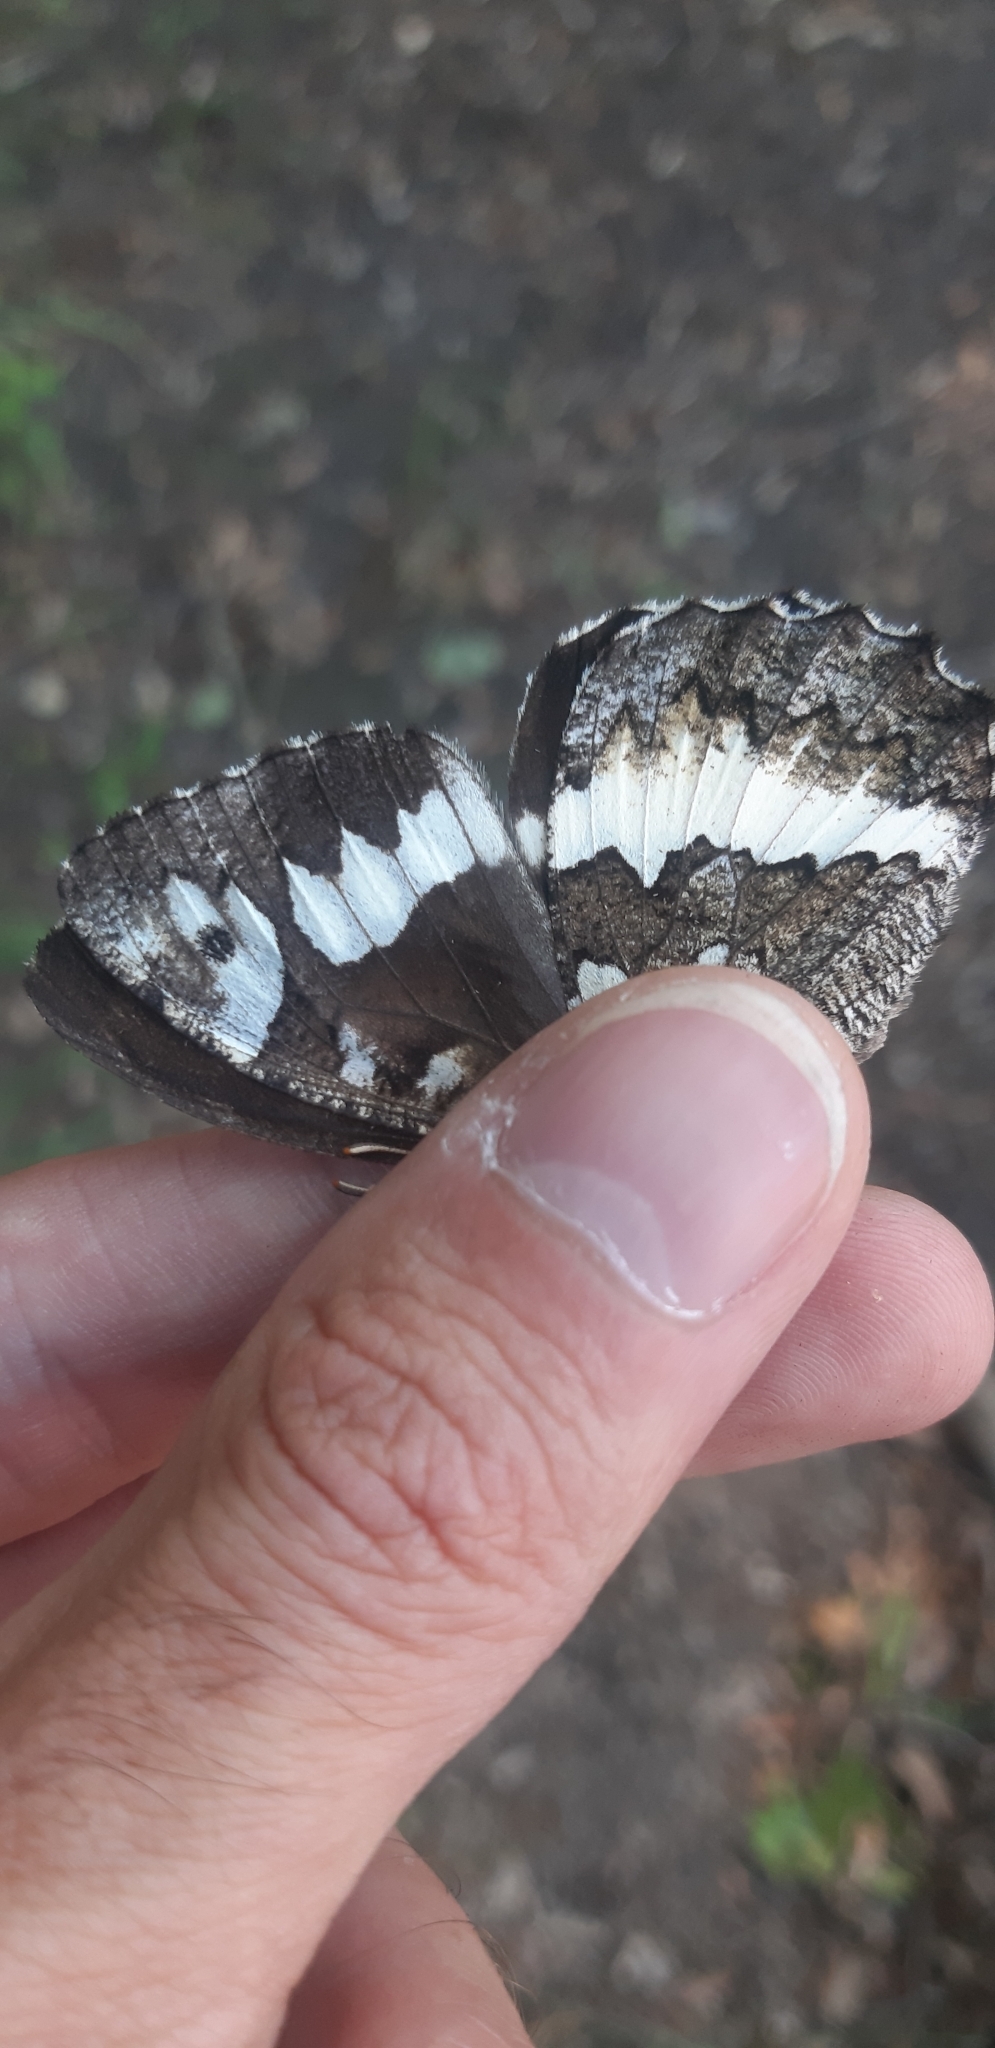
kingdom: Animalia
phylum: Arthropoda
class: Insecta
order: Lepidoptera
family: Lycaenidae
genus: Loweia
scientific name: Loweia tityrus
